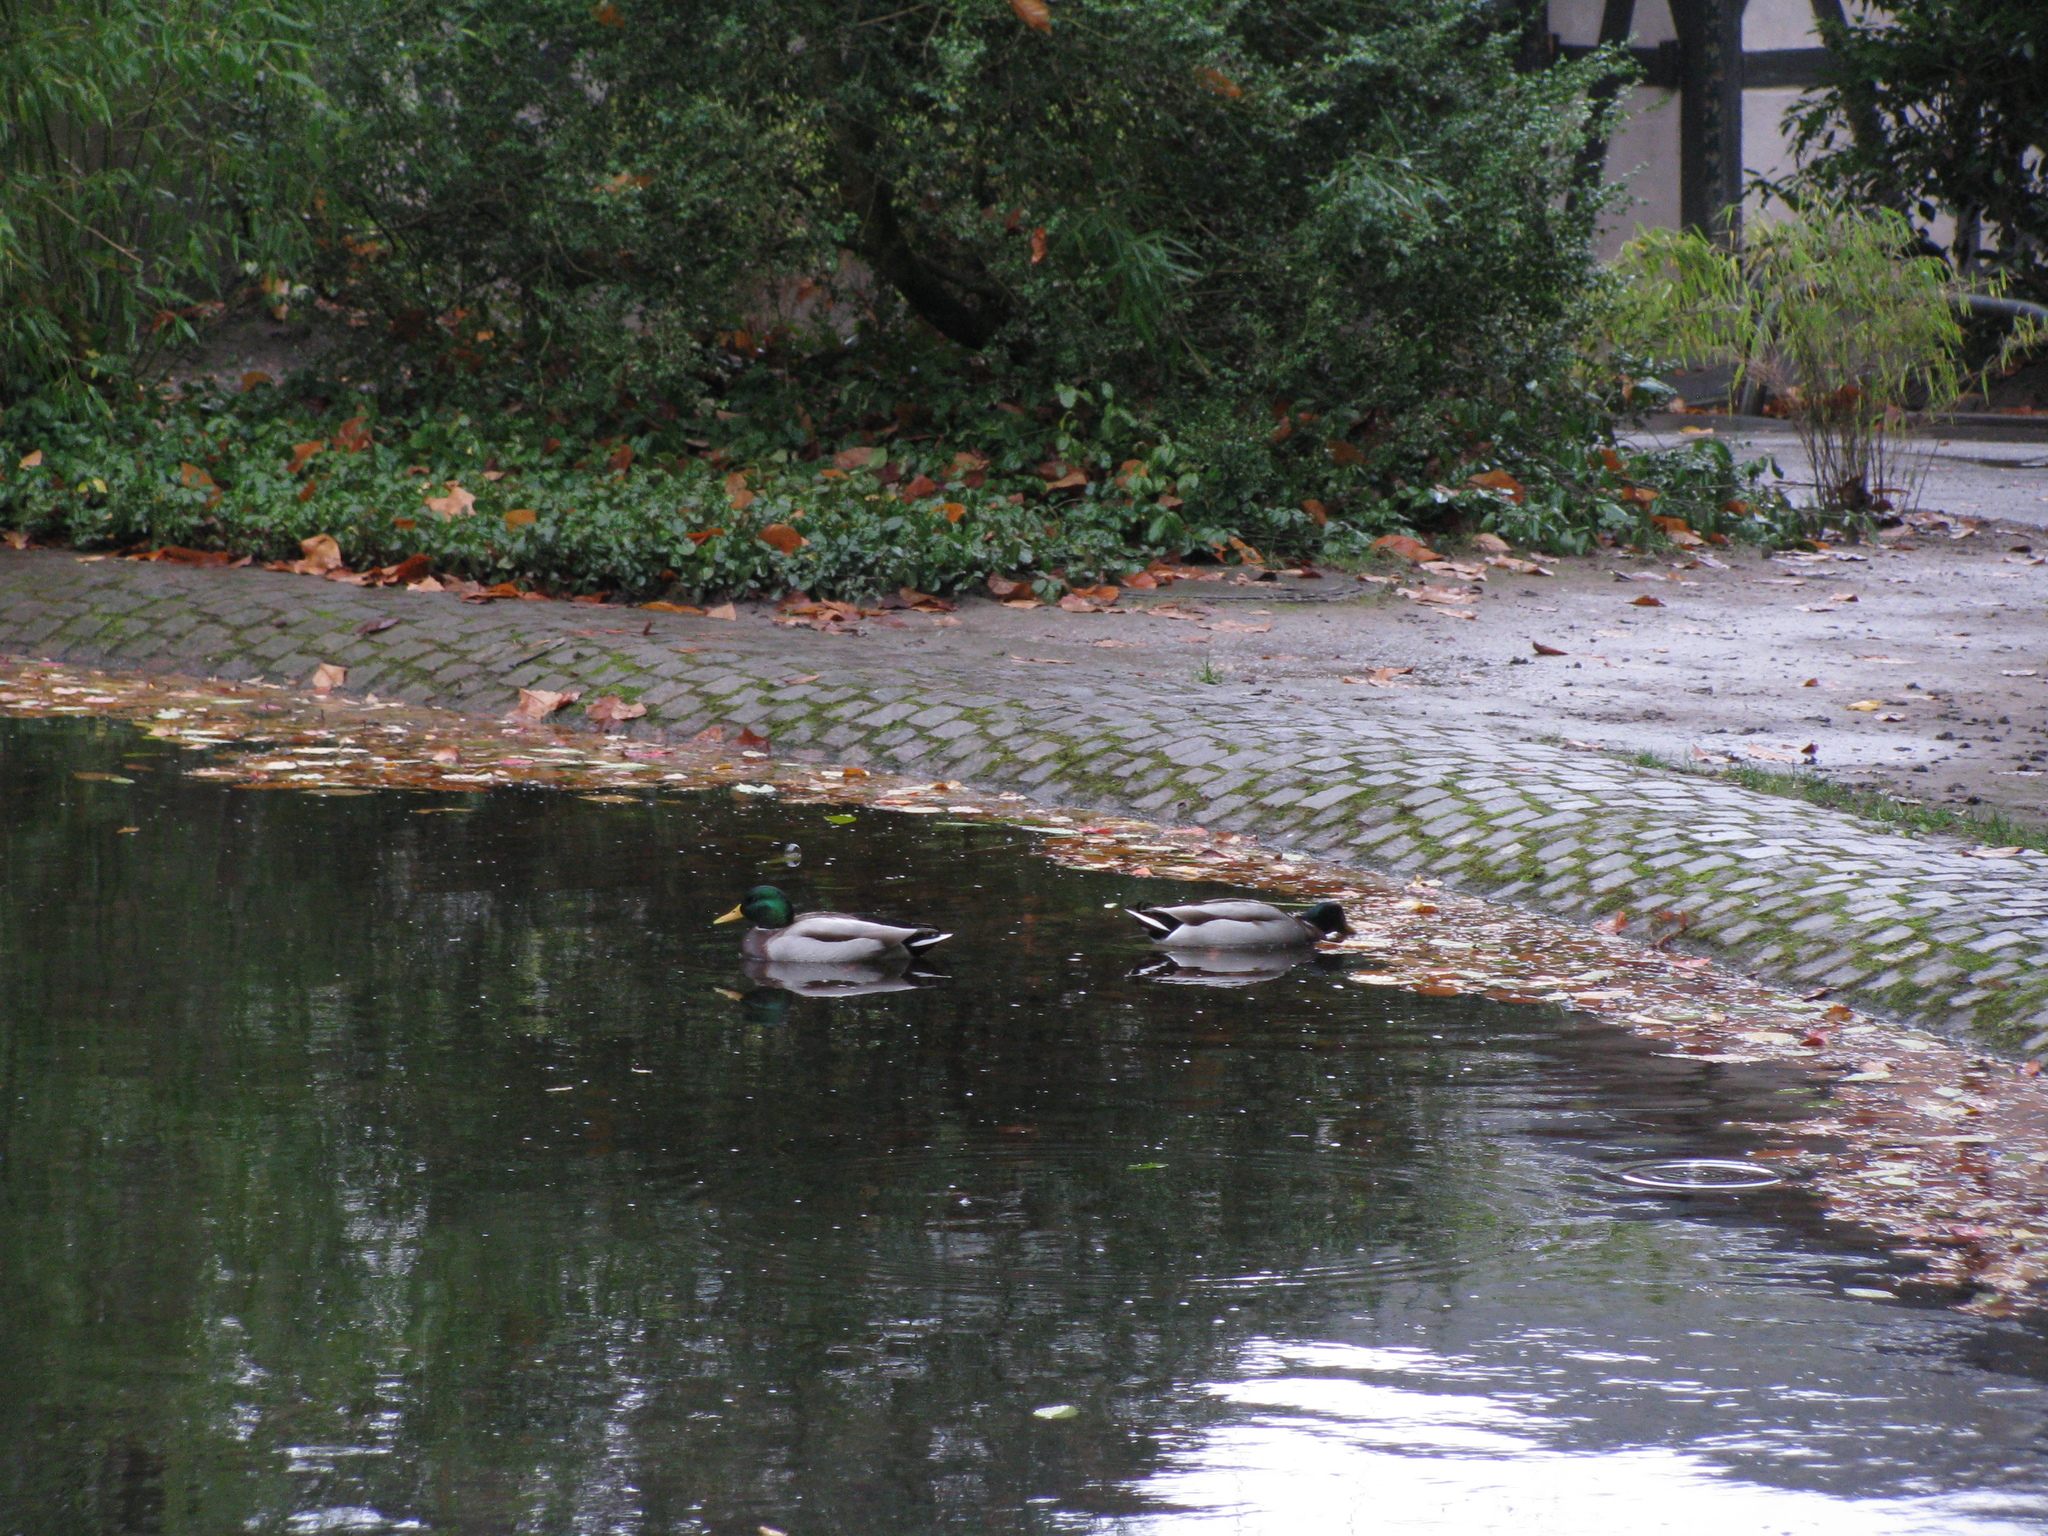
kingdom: Animalia
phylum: Chordata
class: Aves
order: Anseriformes
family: Anatidae
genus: Anas
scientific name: Anas platyrhynchos
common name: Mallard
